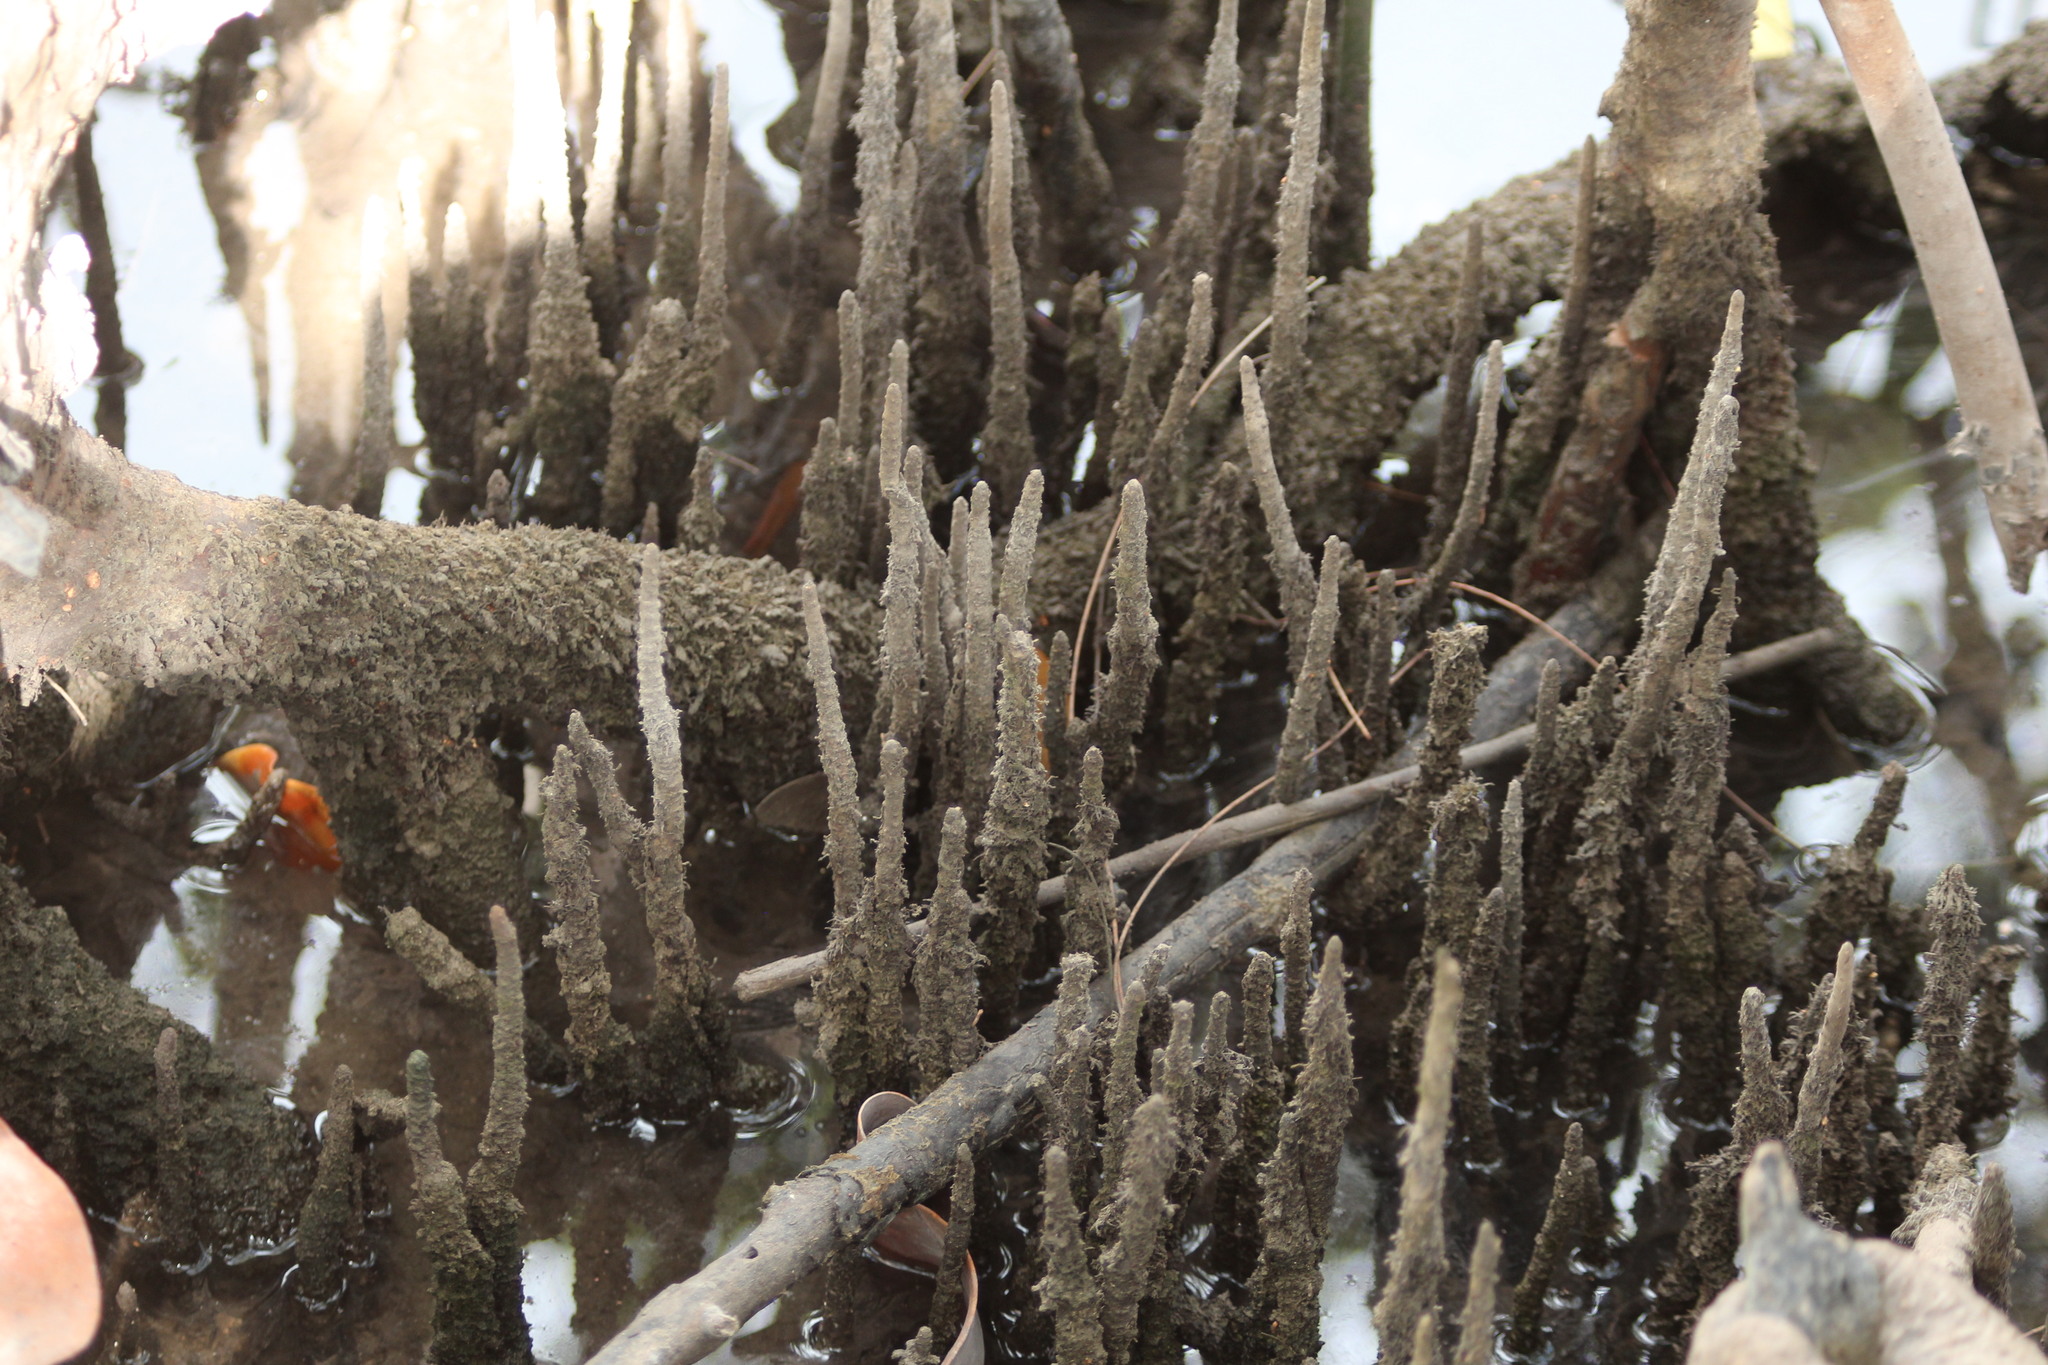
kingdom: Plantae
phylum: Tracheophyta
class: Magnoliopsida
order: Lamiales
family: Acanthaceae
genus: Avicennia
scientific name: Avicennia germinans
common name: Black mangrove
